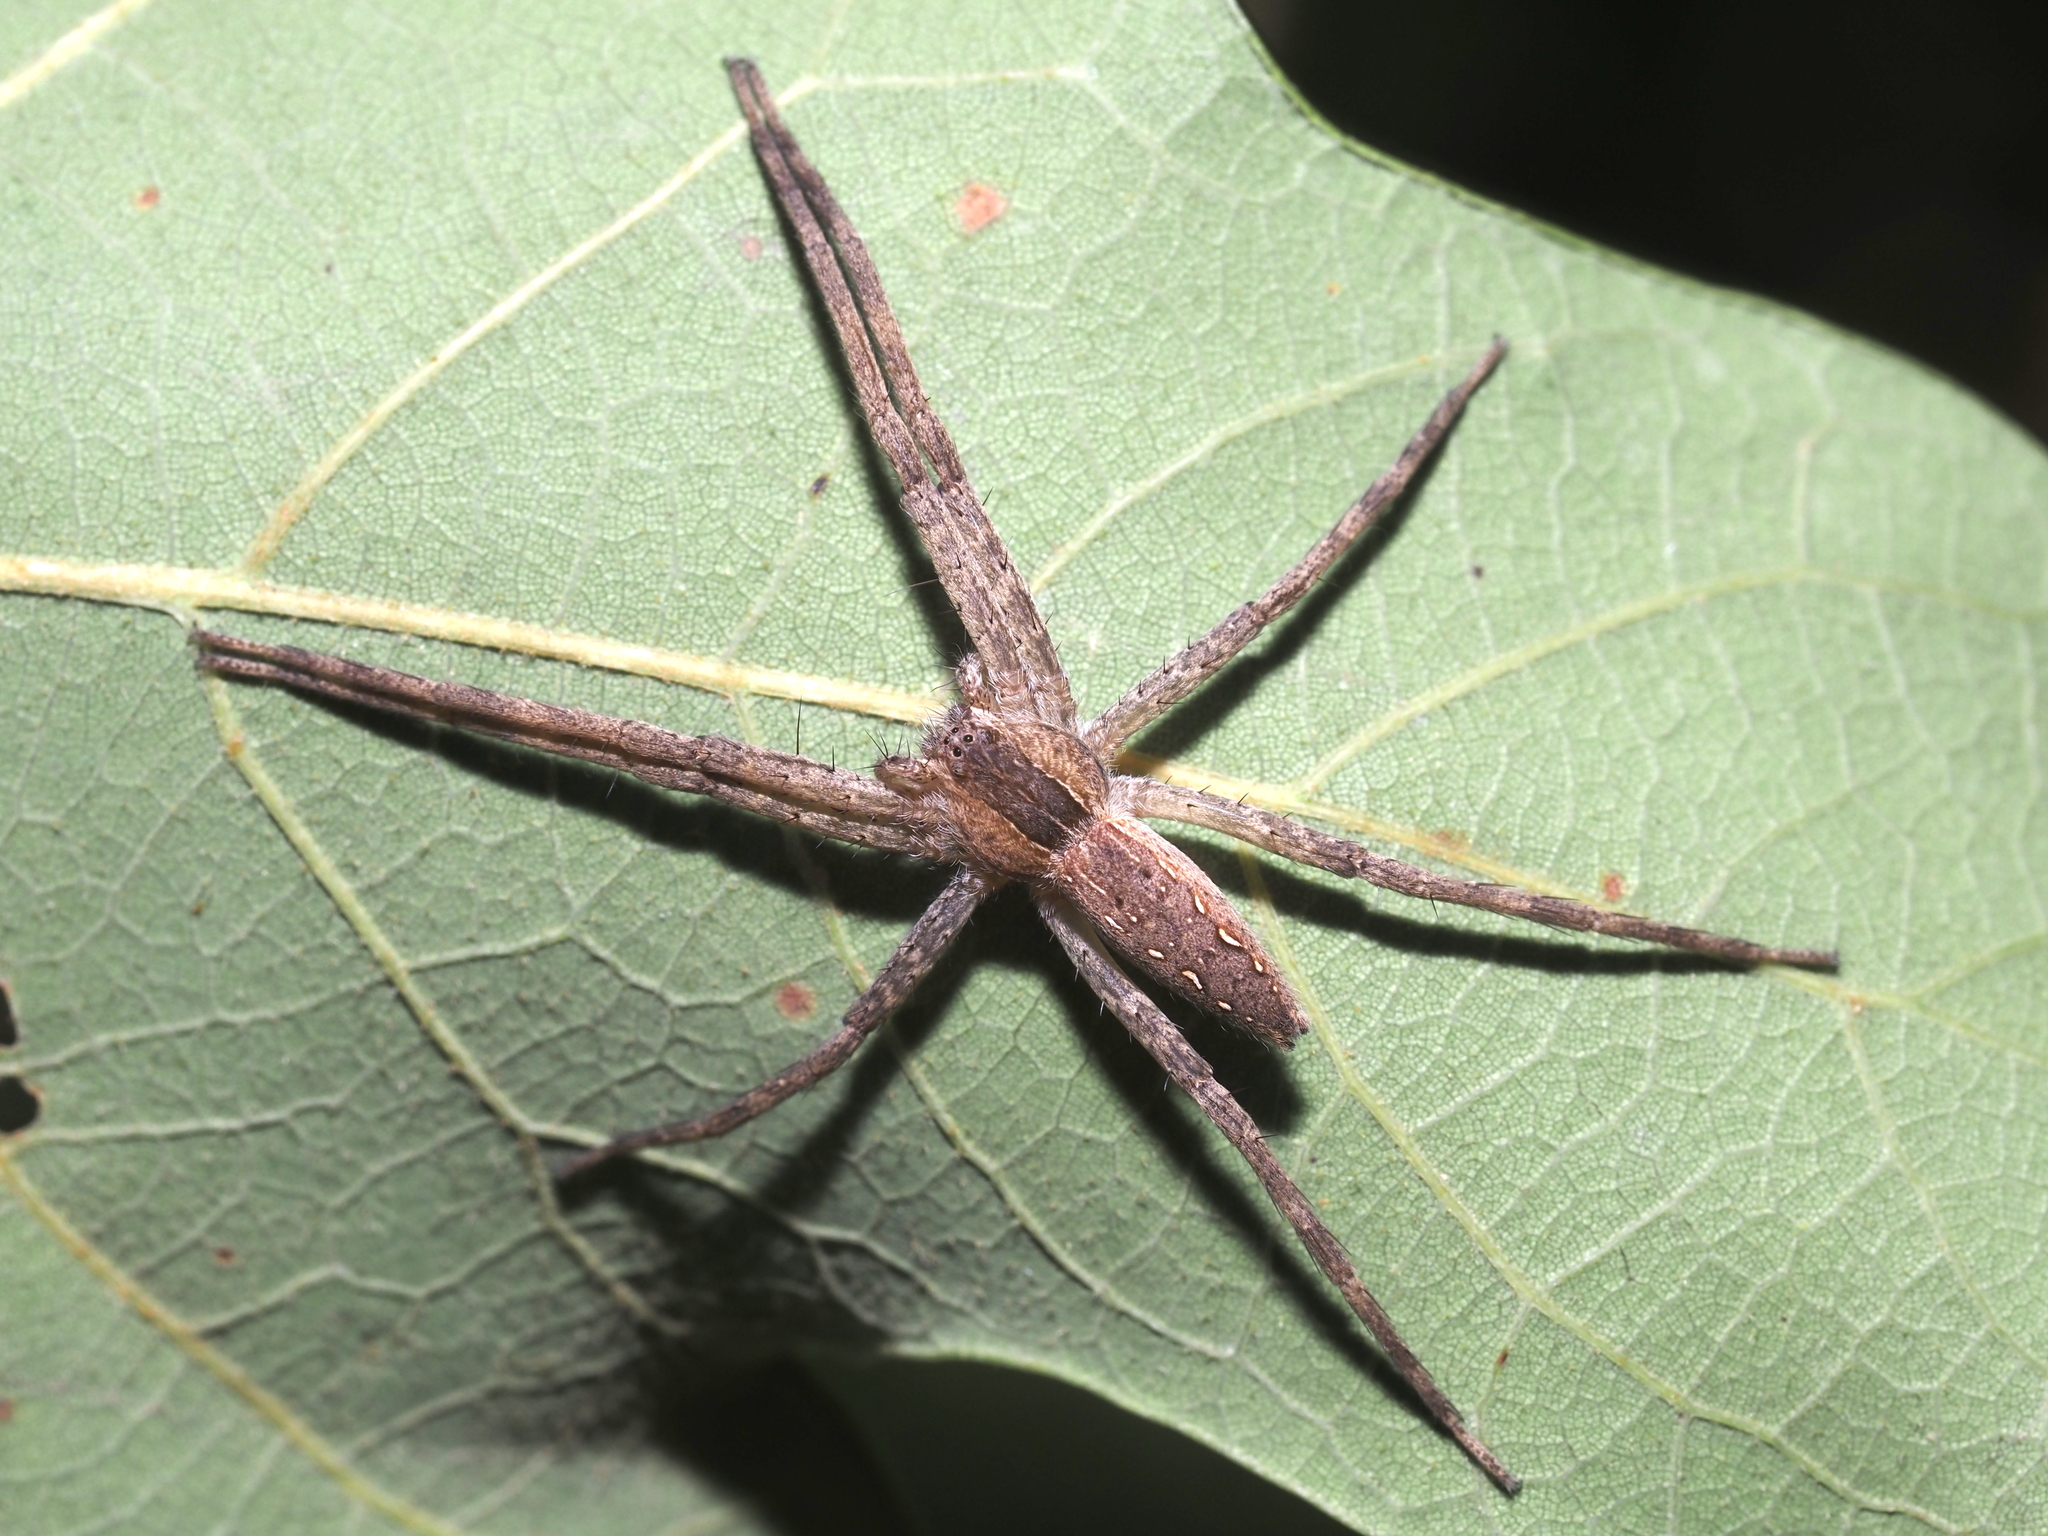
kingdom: Animalia
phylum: Arthropoda
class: Arachnida
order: Araneae
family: Pisauridae
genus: Pisaurina
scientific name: Pisaurina mira
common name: American nursery web spider
